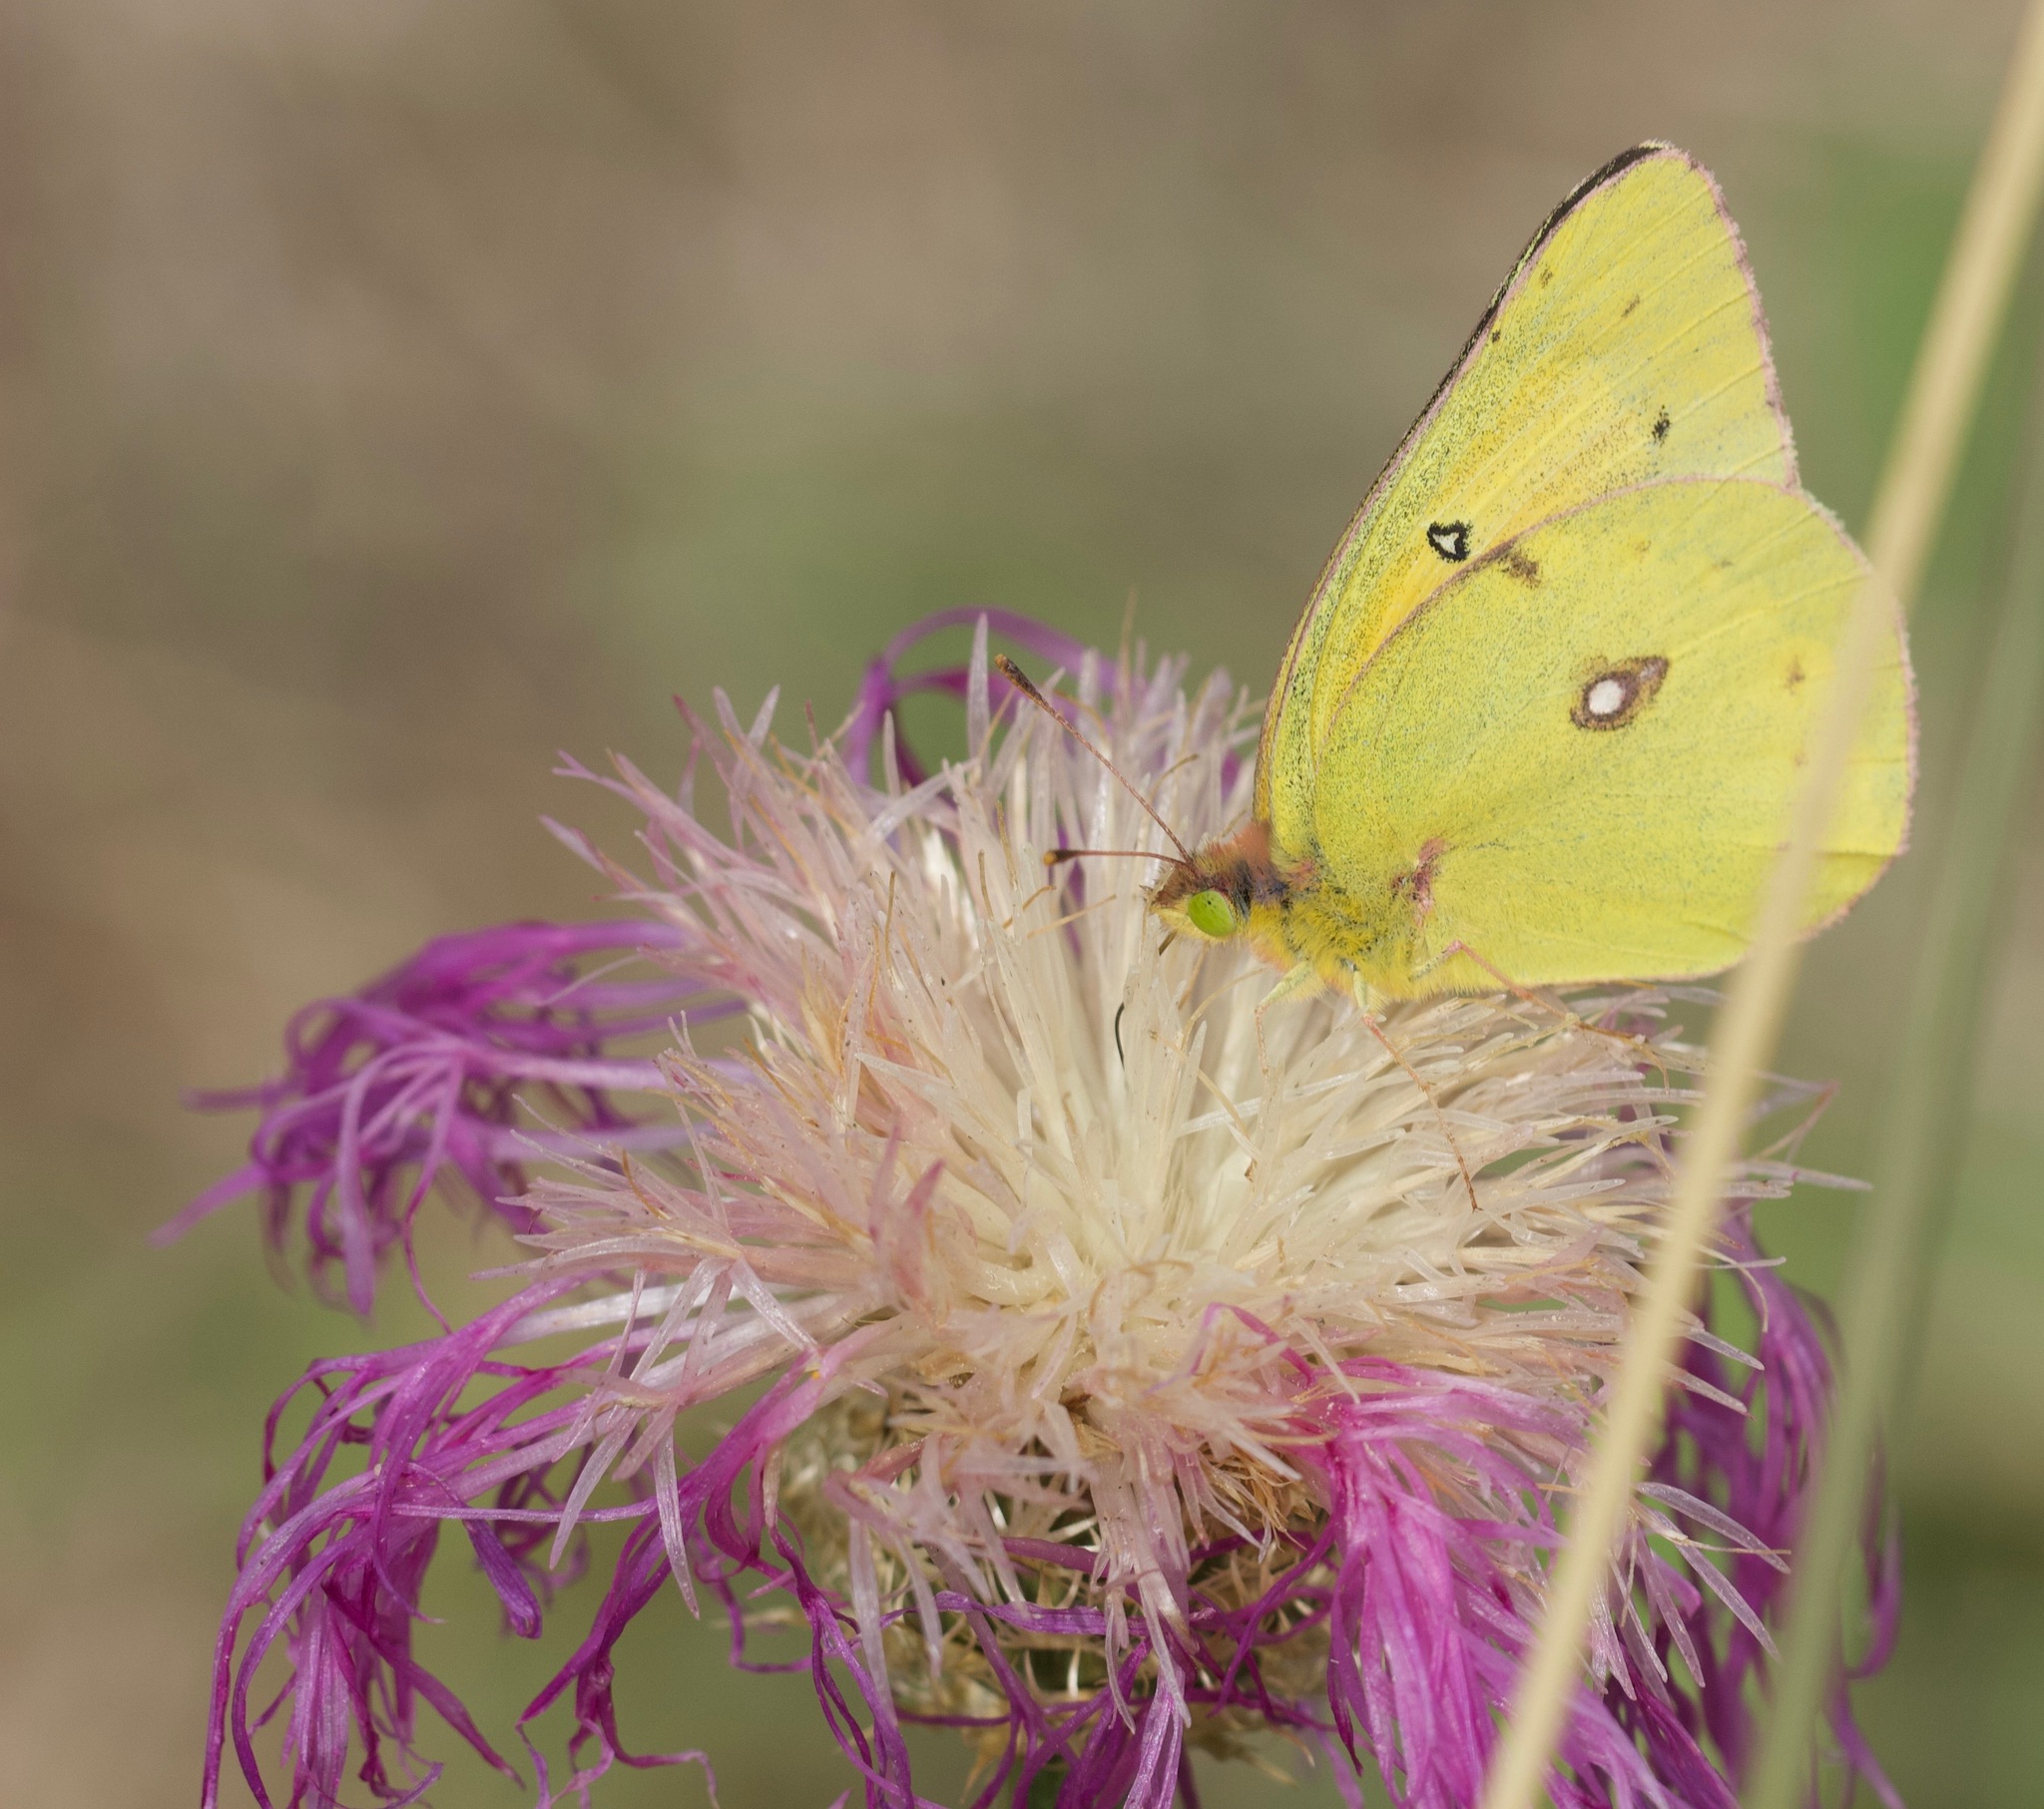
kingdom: Animalia
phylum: Arthropoda
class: Insecta
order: Lepidoptera
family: Pieridae
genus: Colias
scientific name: Colias eurytheme
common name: Alfalfa butterfly
